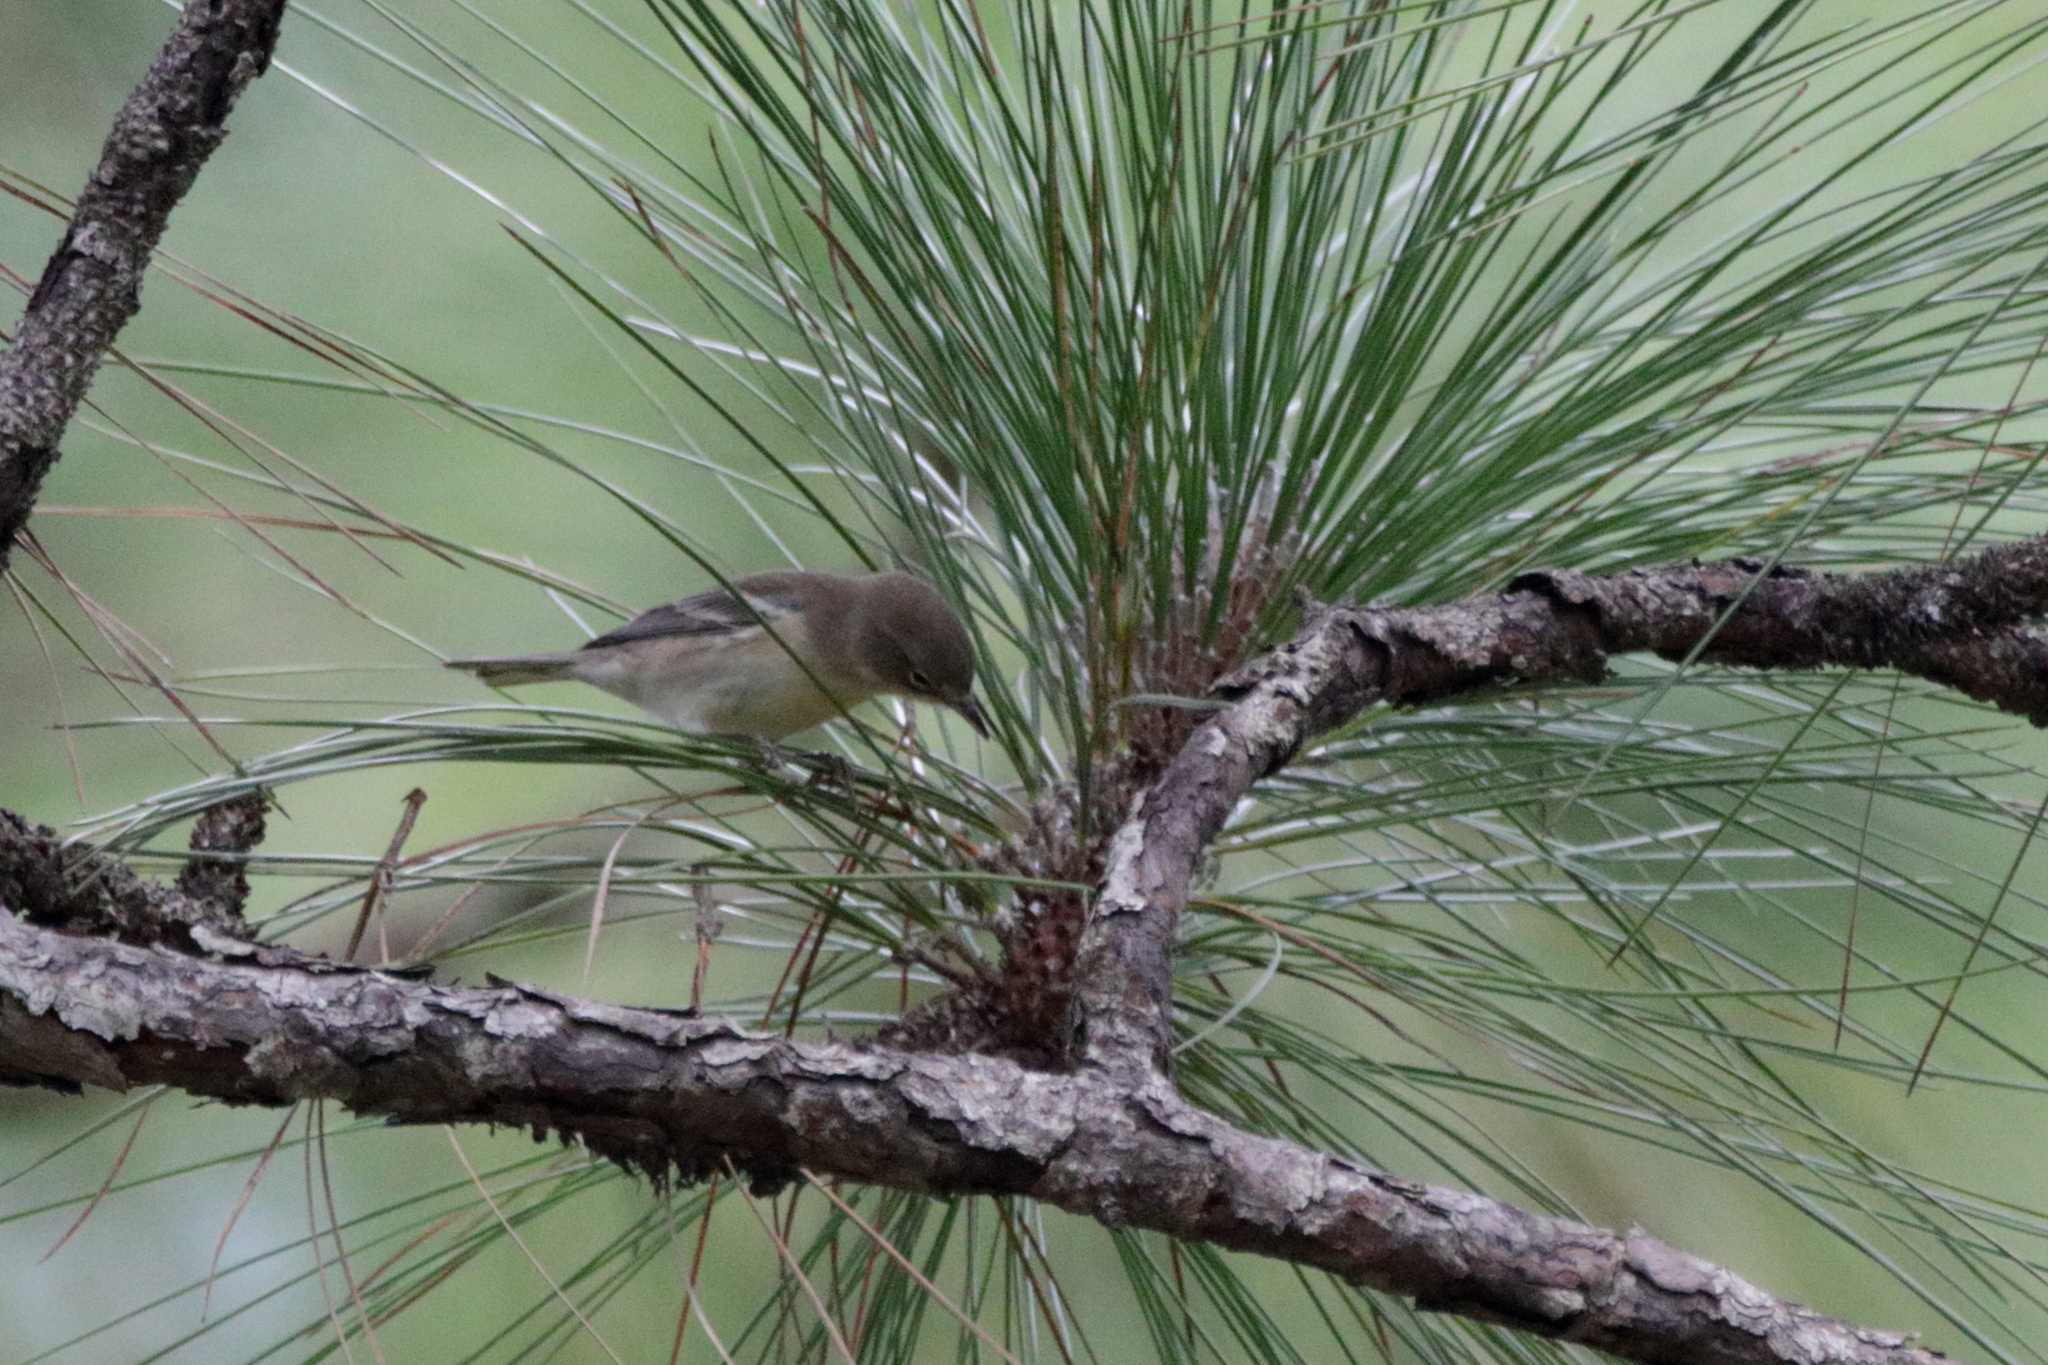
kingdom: Animalia
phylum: Chordata
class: Aves
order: Passeriformes
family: Parulidae
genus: Setophaga
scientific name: Setophaga pinus
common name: Pine warbler
